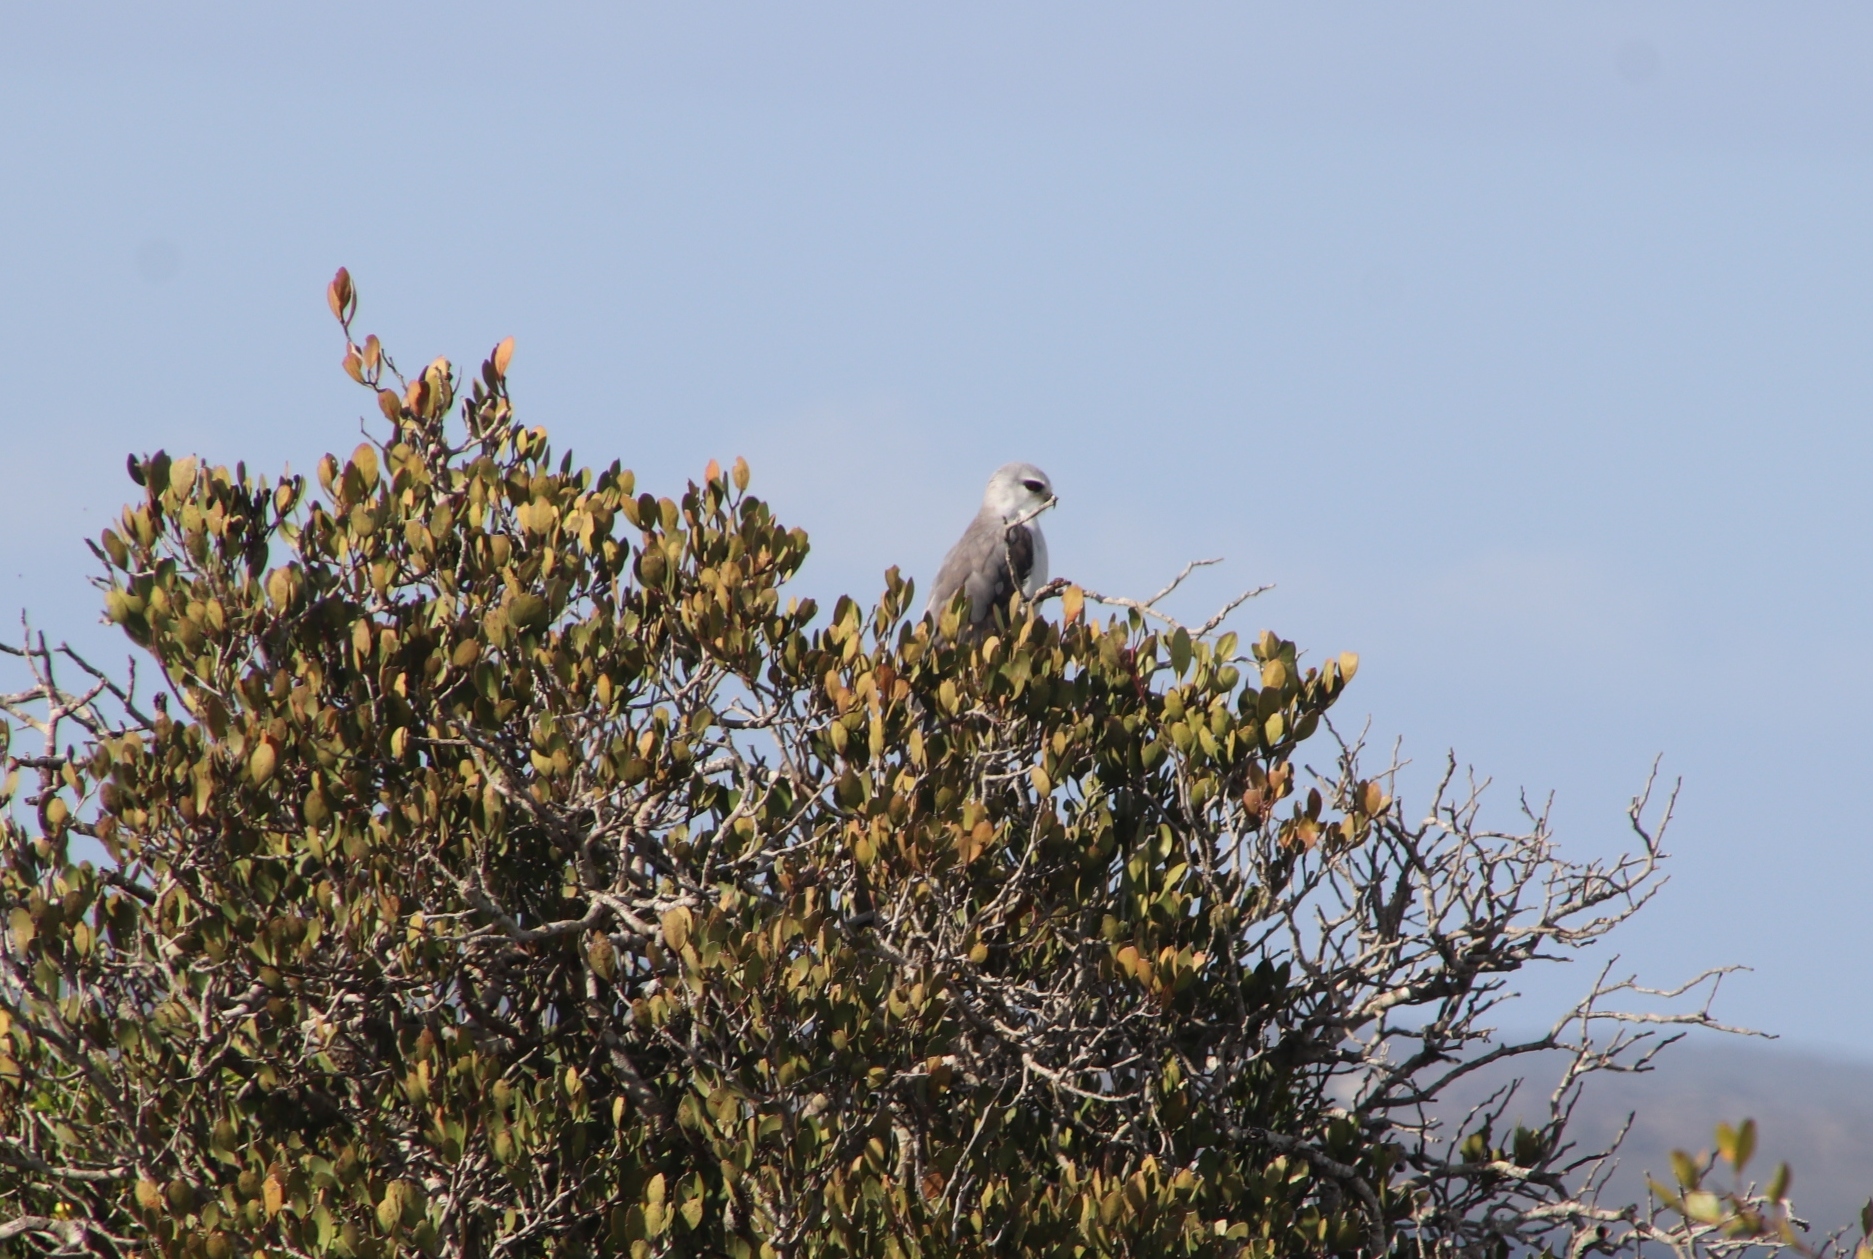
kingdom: Animalia
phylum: Chordata
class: Aves
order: Accipitriformes
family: Accipitridae
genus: Elanus
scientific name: Elanus caeruleus
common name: Black-winged kite
